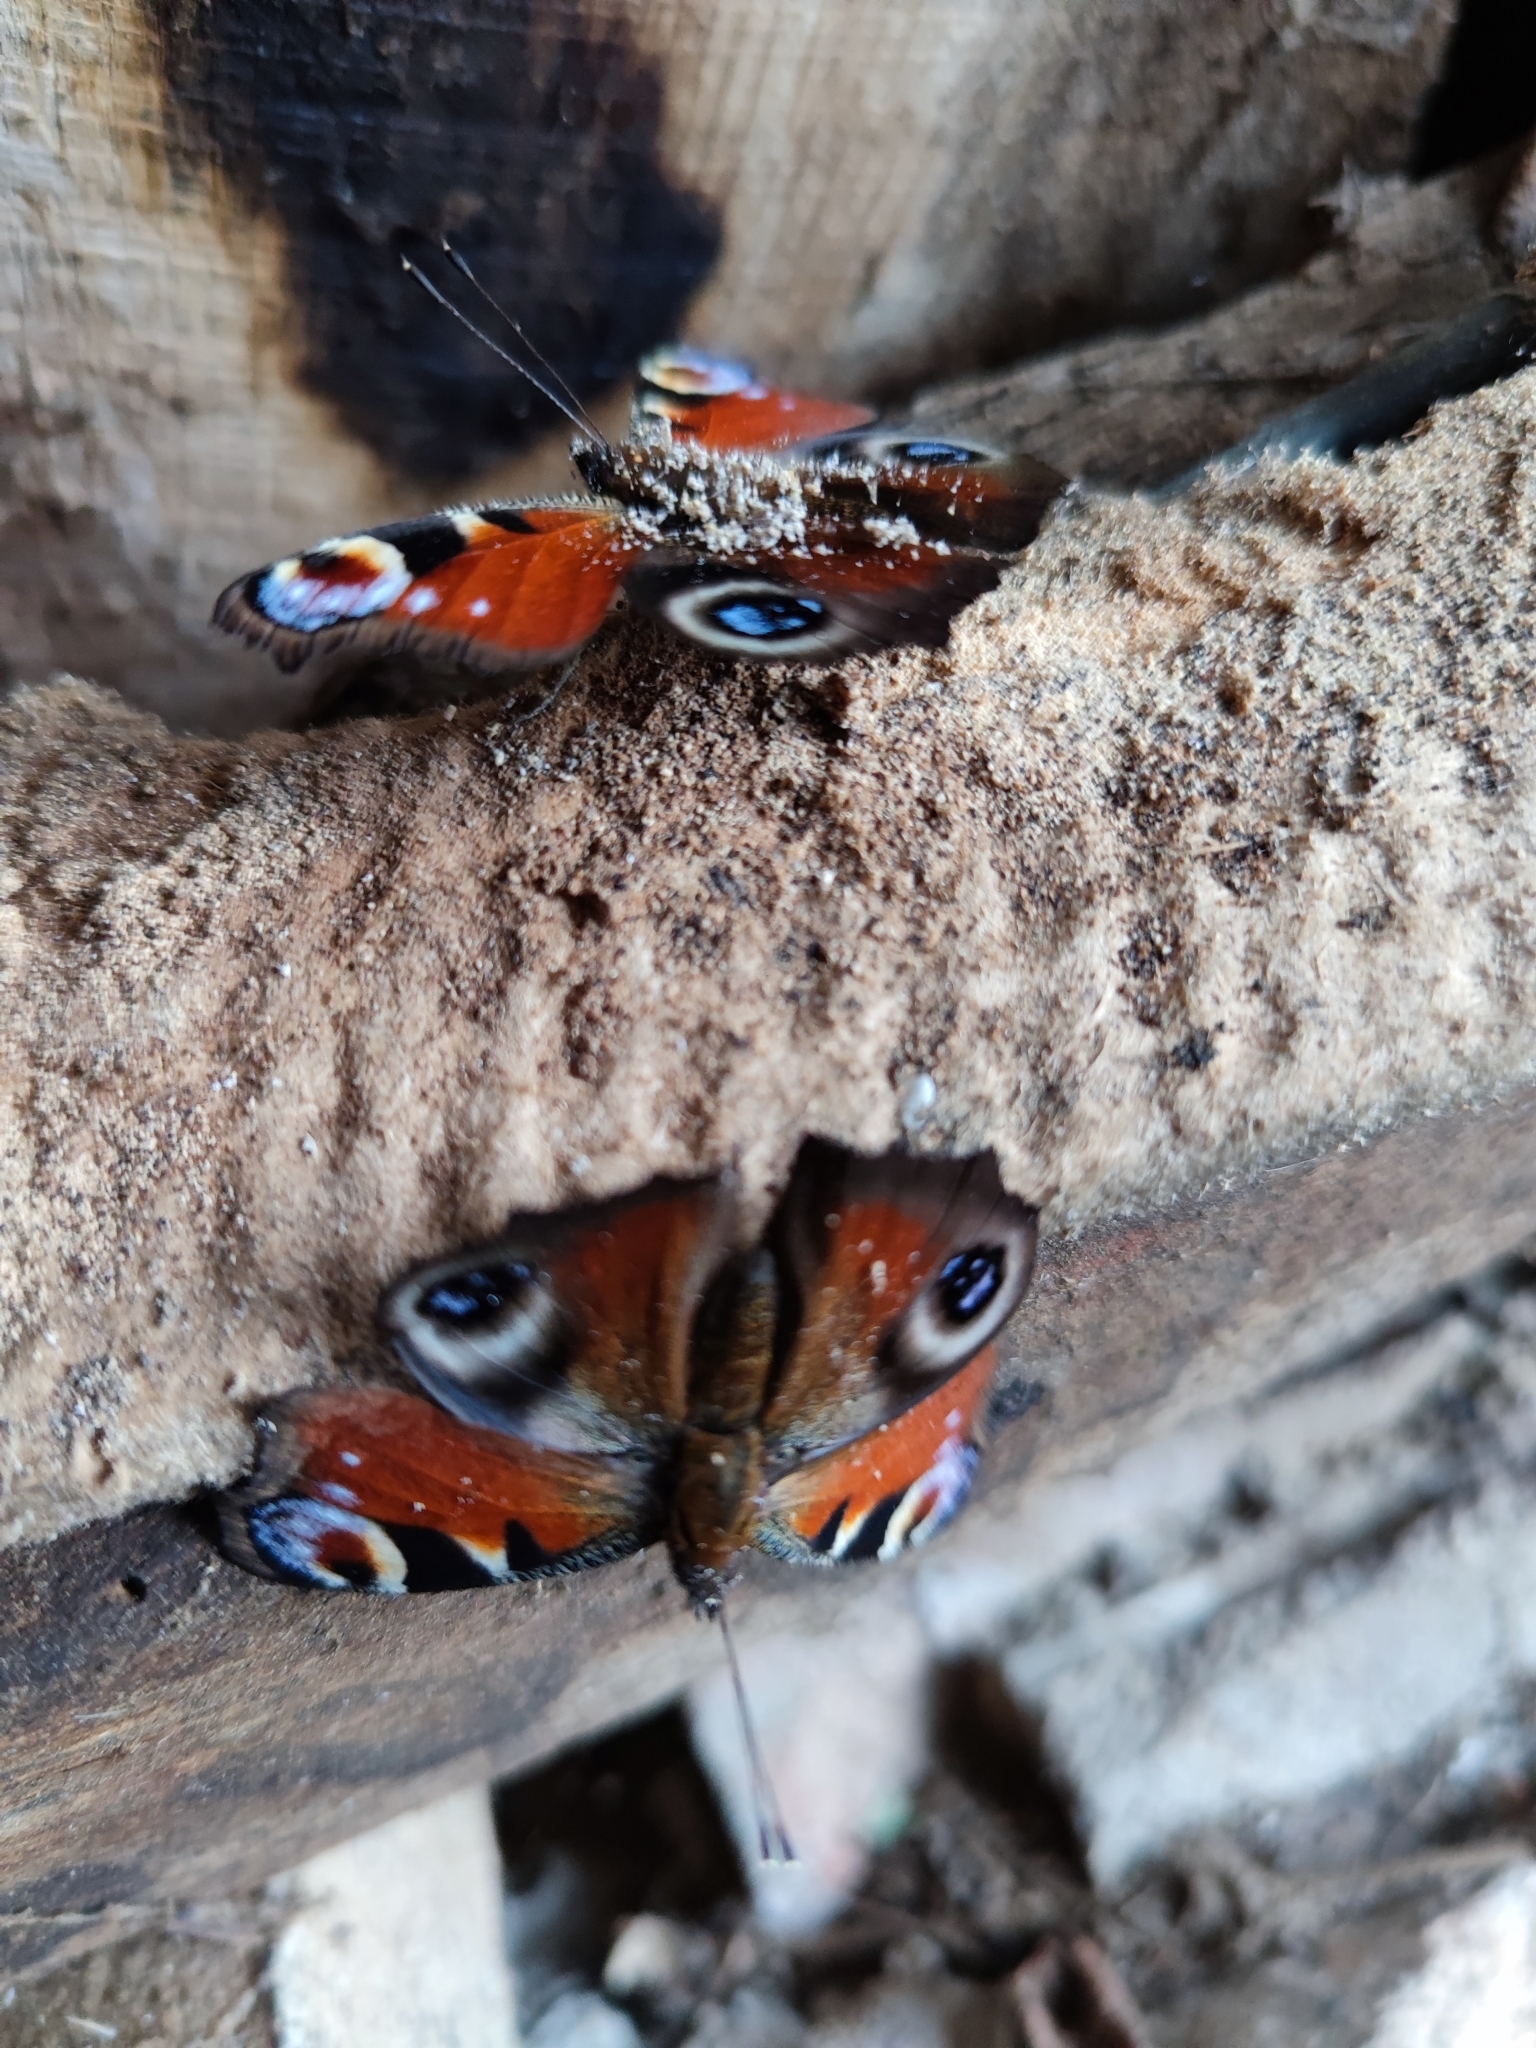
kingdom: Animalia
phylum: Arthropoda
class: Insecta
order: Lepidoptera
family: Nymphalidae
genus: Aglais
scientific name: Aglais io
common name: Peacock
